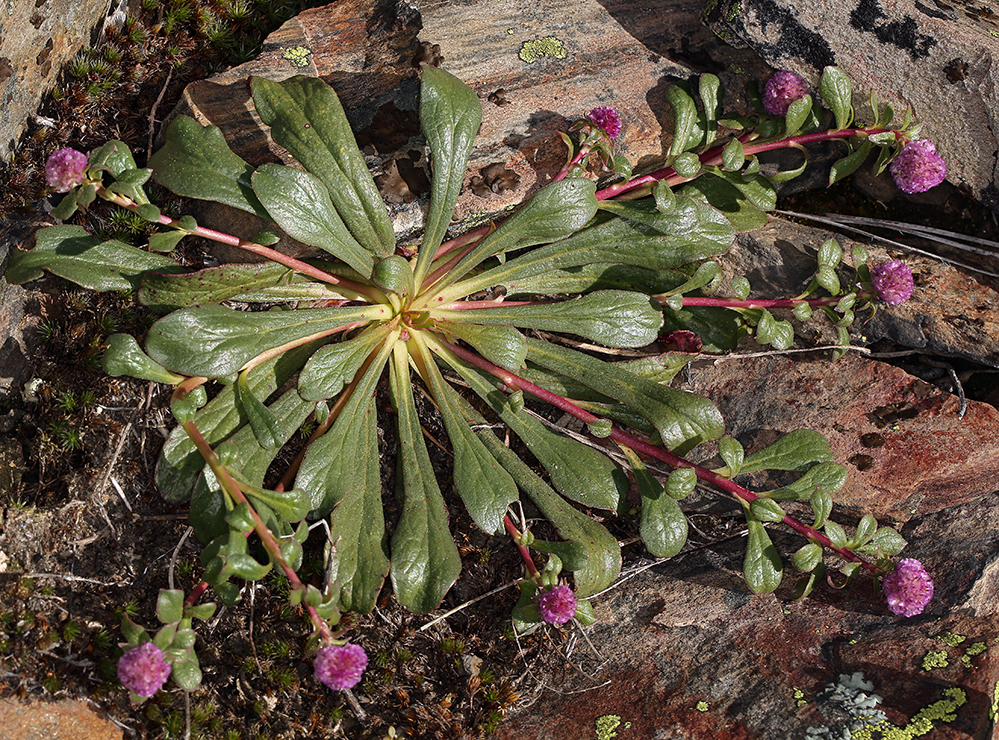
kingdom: Plantae
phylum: Tracheophyta
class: Magnoliopsida
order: Caryophyllales
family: Montiaceae
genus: Calyptridium
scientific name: Calyptridium monospermum
